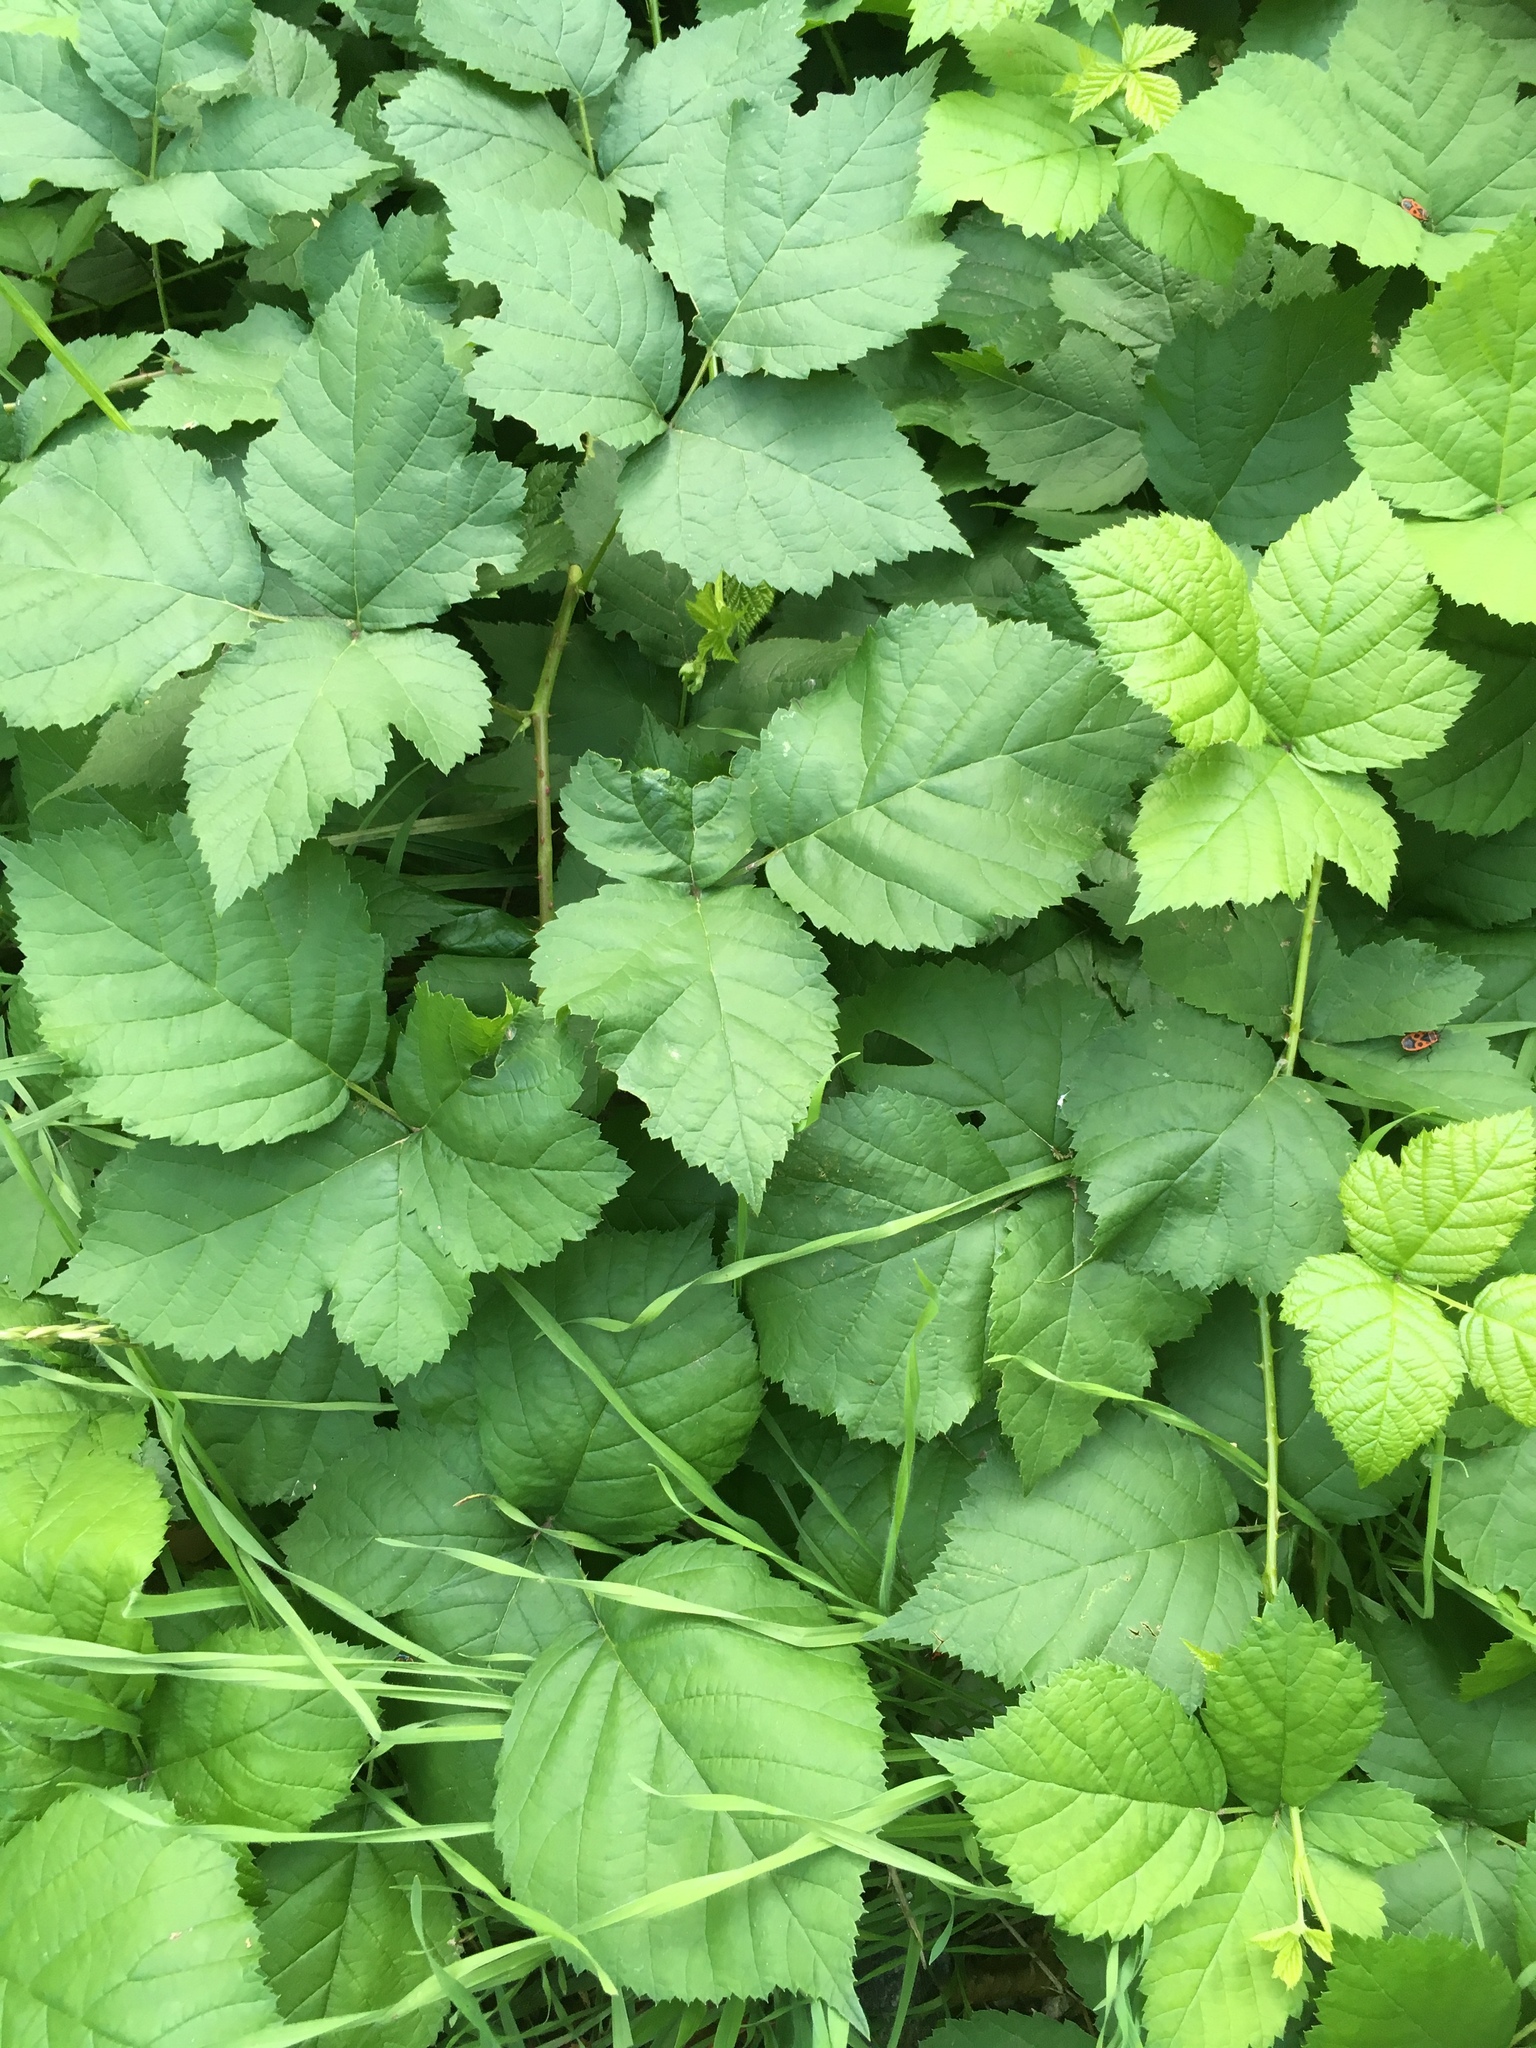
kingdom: Plantae
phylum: Tracheophyta
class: Magnoliopsida
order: Rosales
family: Rosaceae
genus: Rubus
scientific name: Rubus caesius
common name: Dewberry
